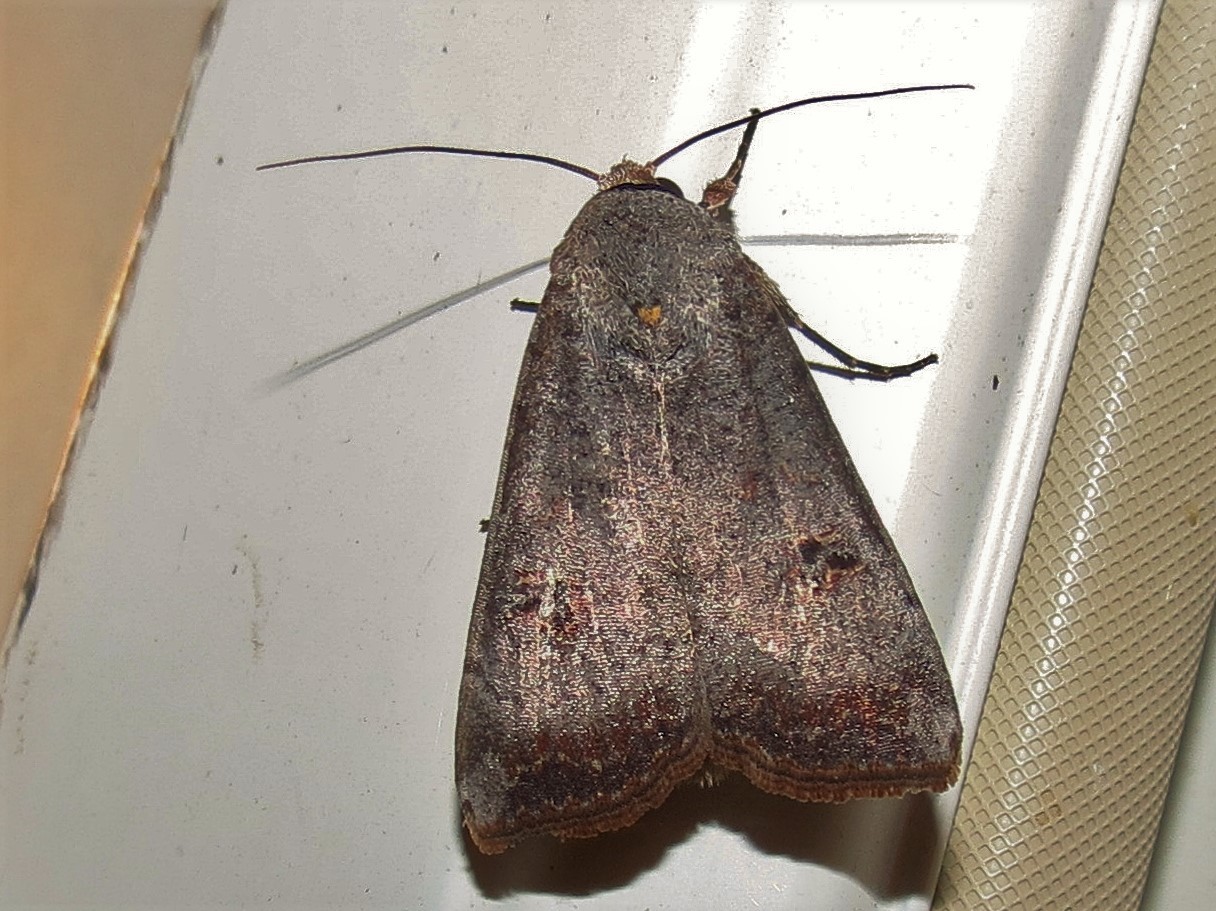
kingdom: Animalia
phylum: Arthropoda
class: Insecta
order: Lepidoptera
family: Noctuidae
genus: Anicla
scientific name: Anicla infecta
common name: Green cutworm
